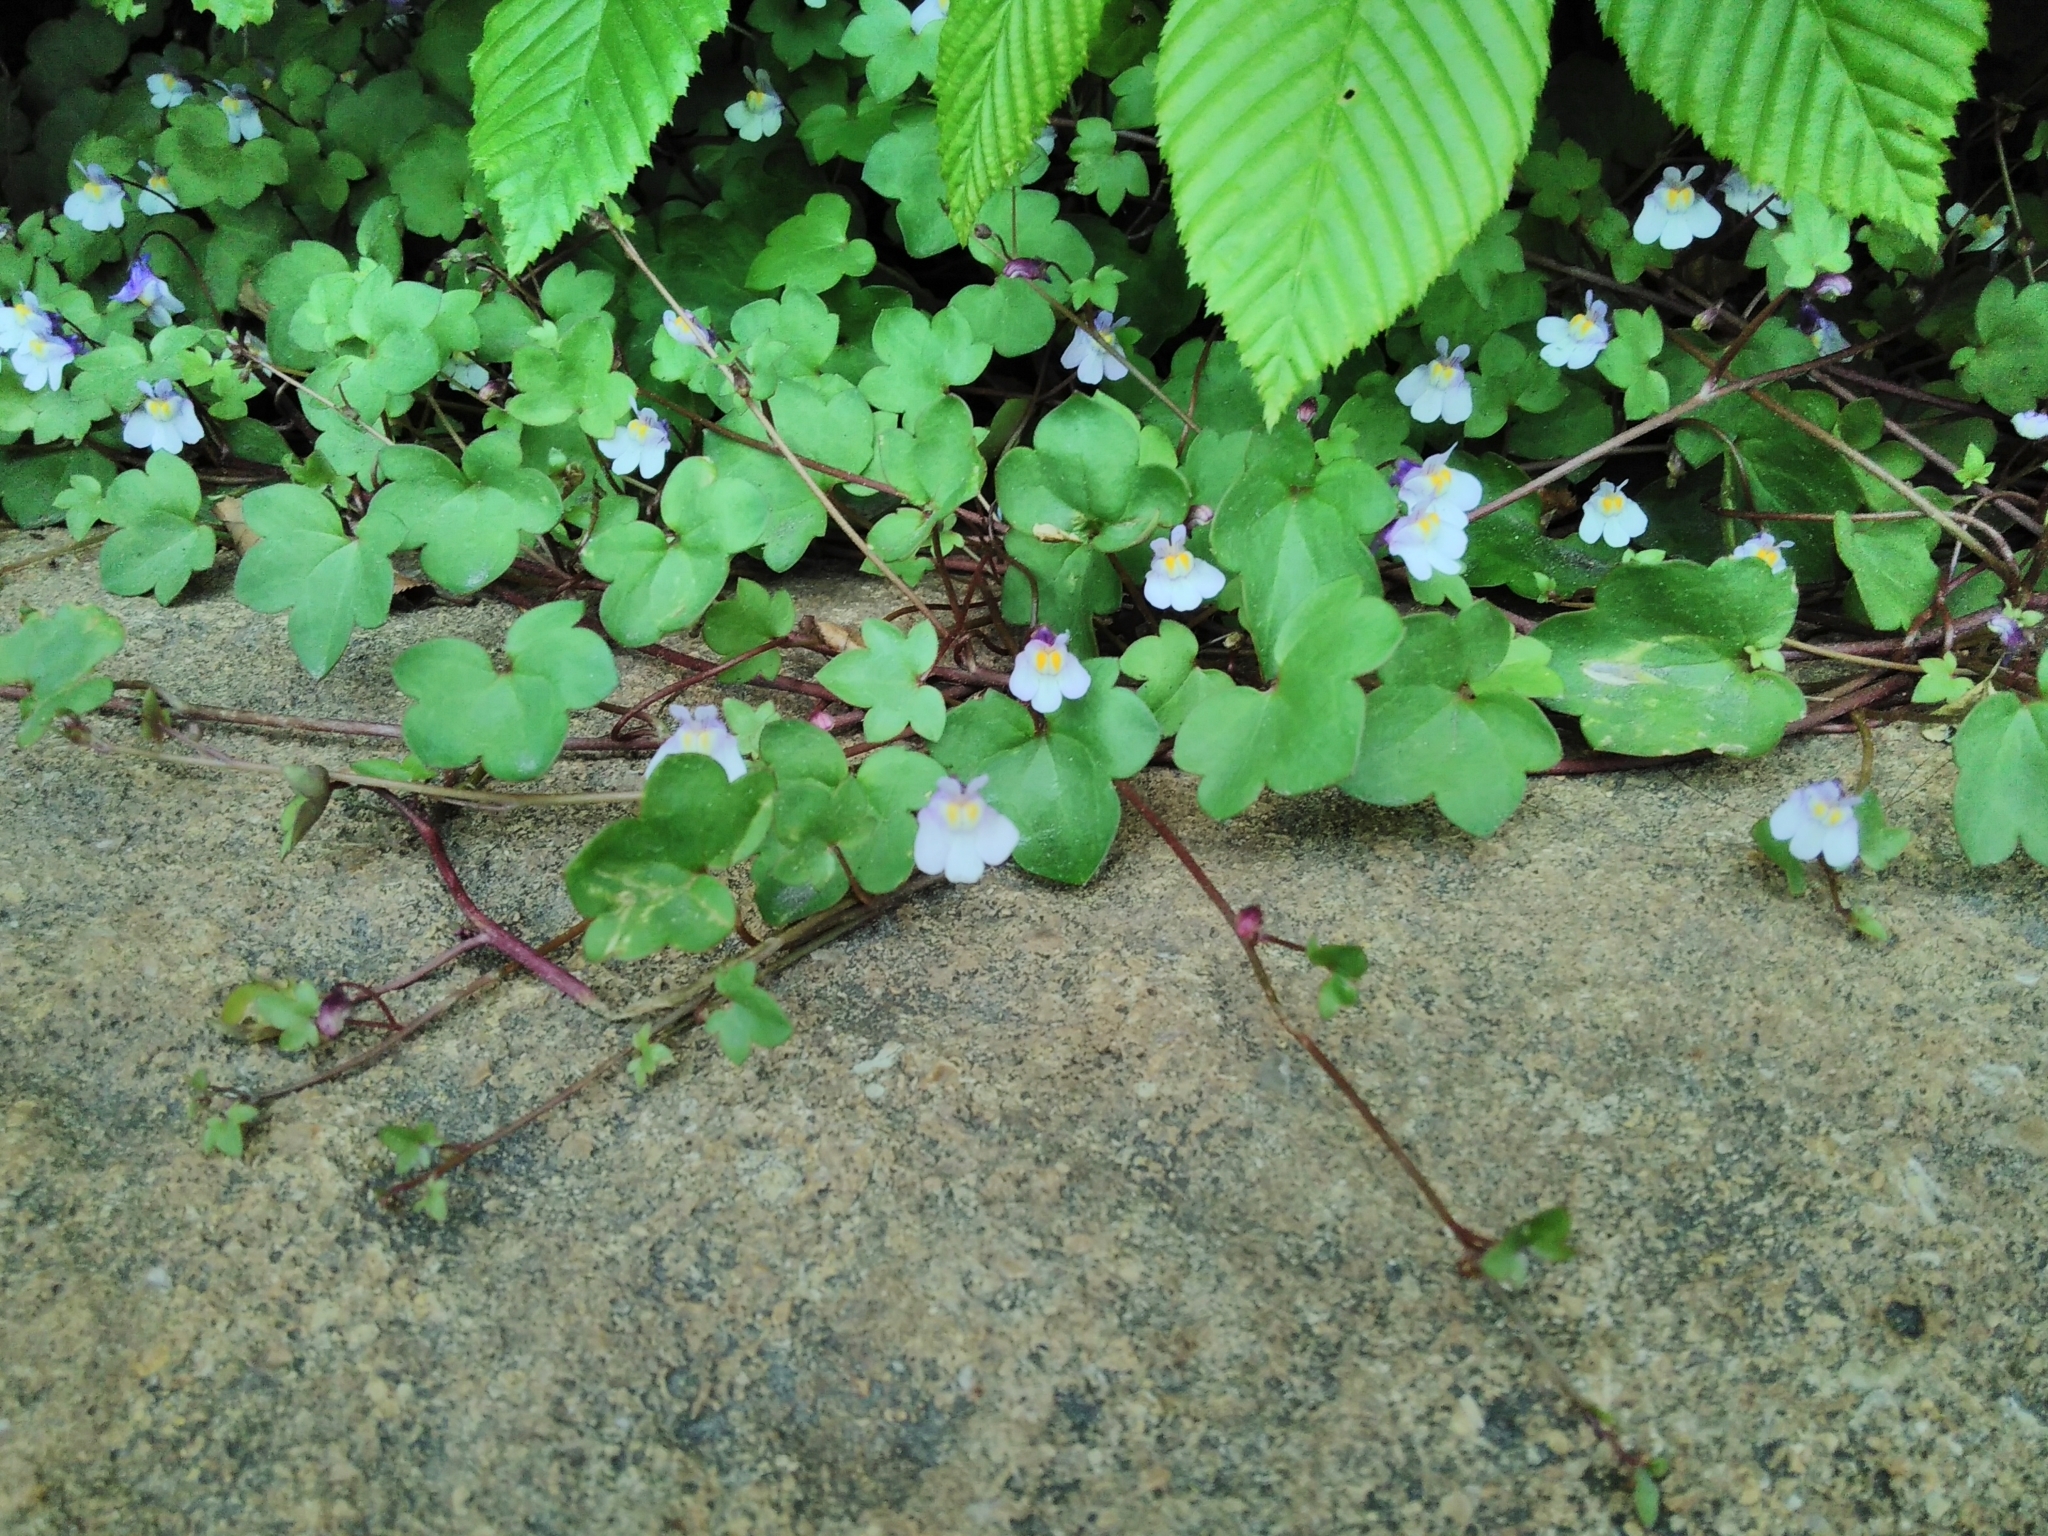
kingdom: Plantae
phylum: Tracheophyta
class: Magnoliopsida
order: Lamiales
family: Plantaginaceae
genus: Cymbalaria
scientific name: Cymbalaria muralis
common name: Ivy-leaved toadflax
